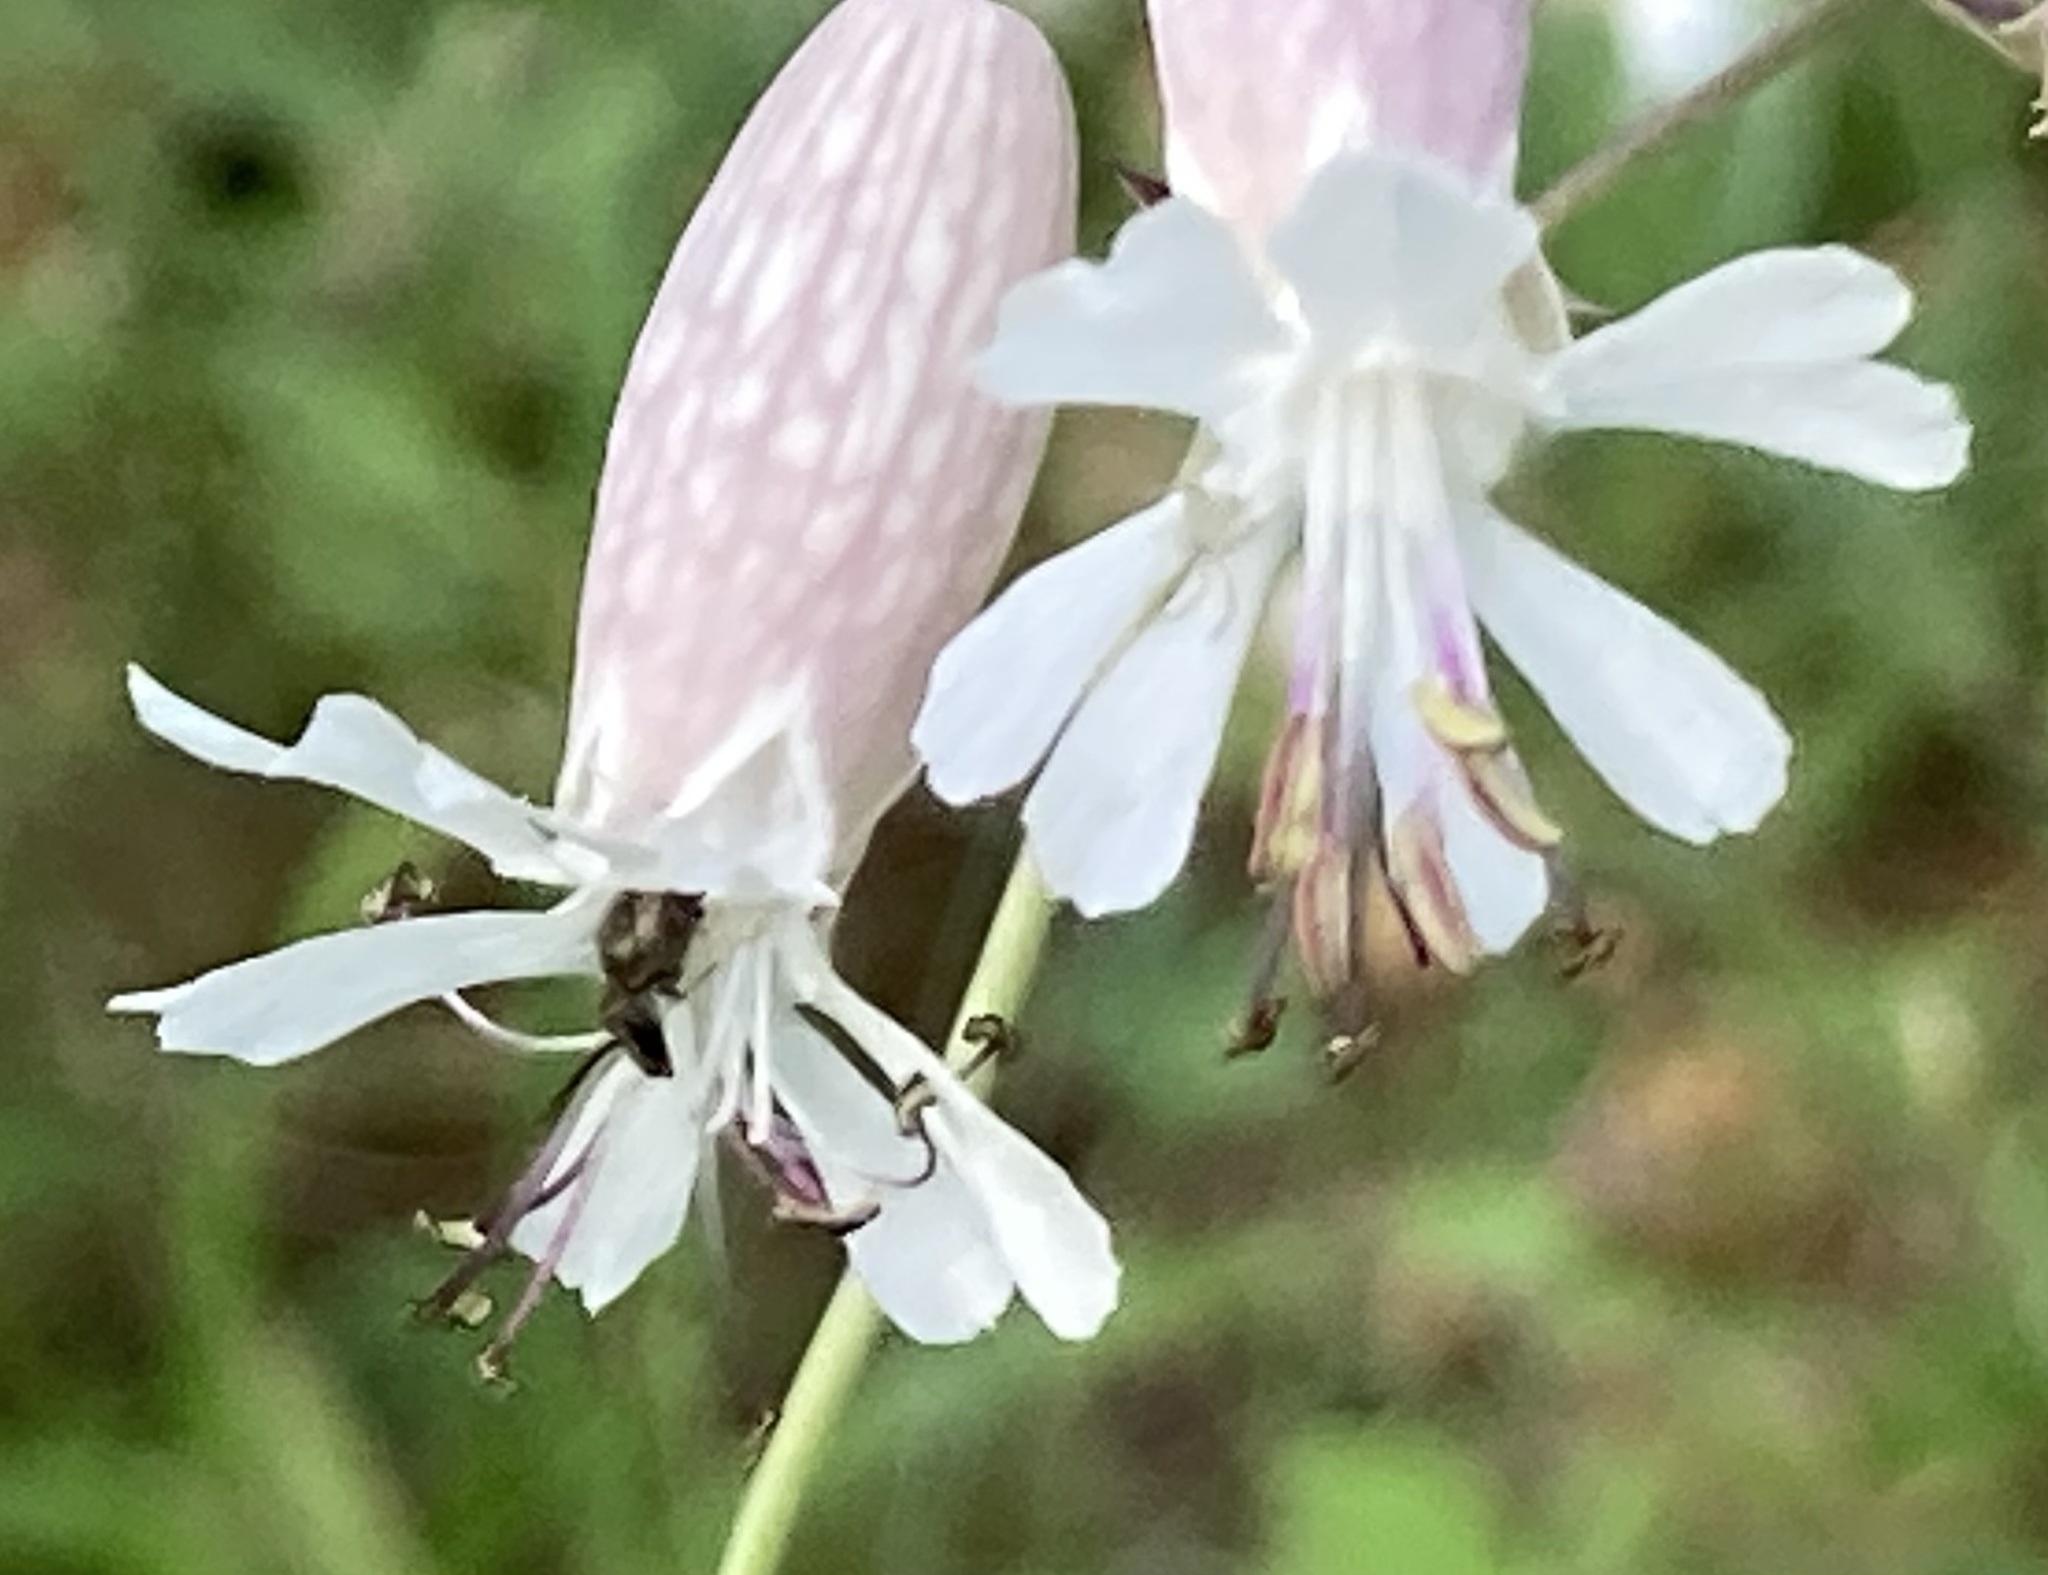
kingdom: Plantae
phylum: Tracheophyta
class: Magnoliopsida
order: Caryophyllales
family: Caryophyllaceae
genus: Silene
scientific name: Silene vulgaris
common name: Bladder campion
